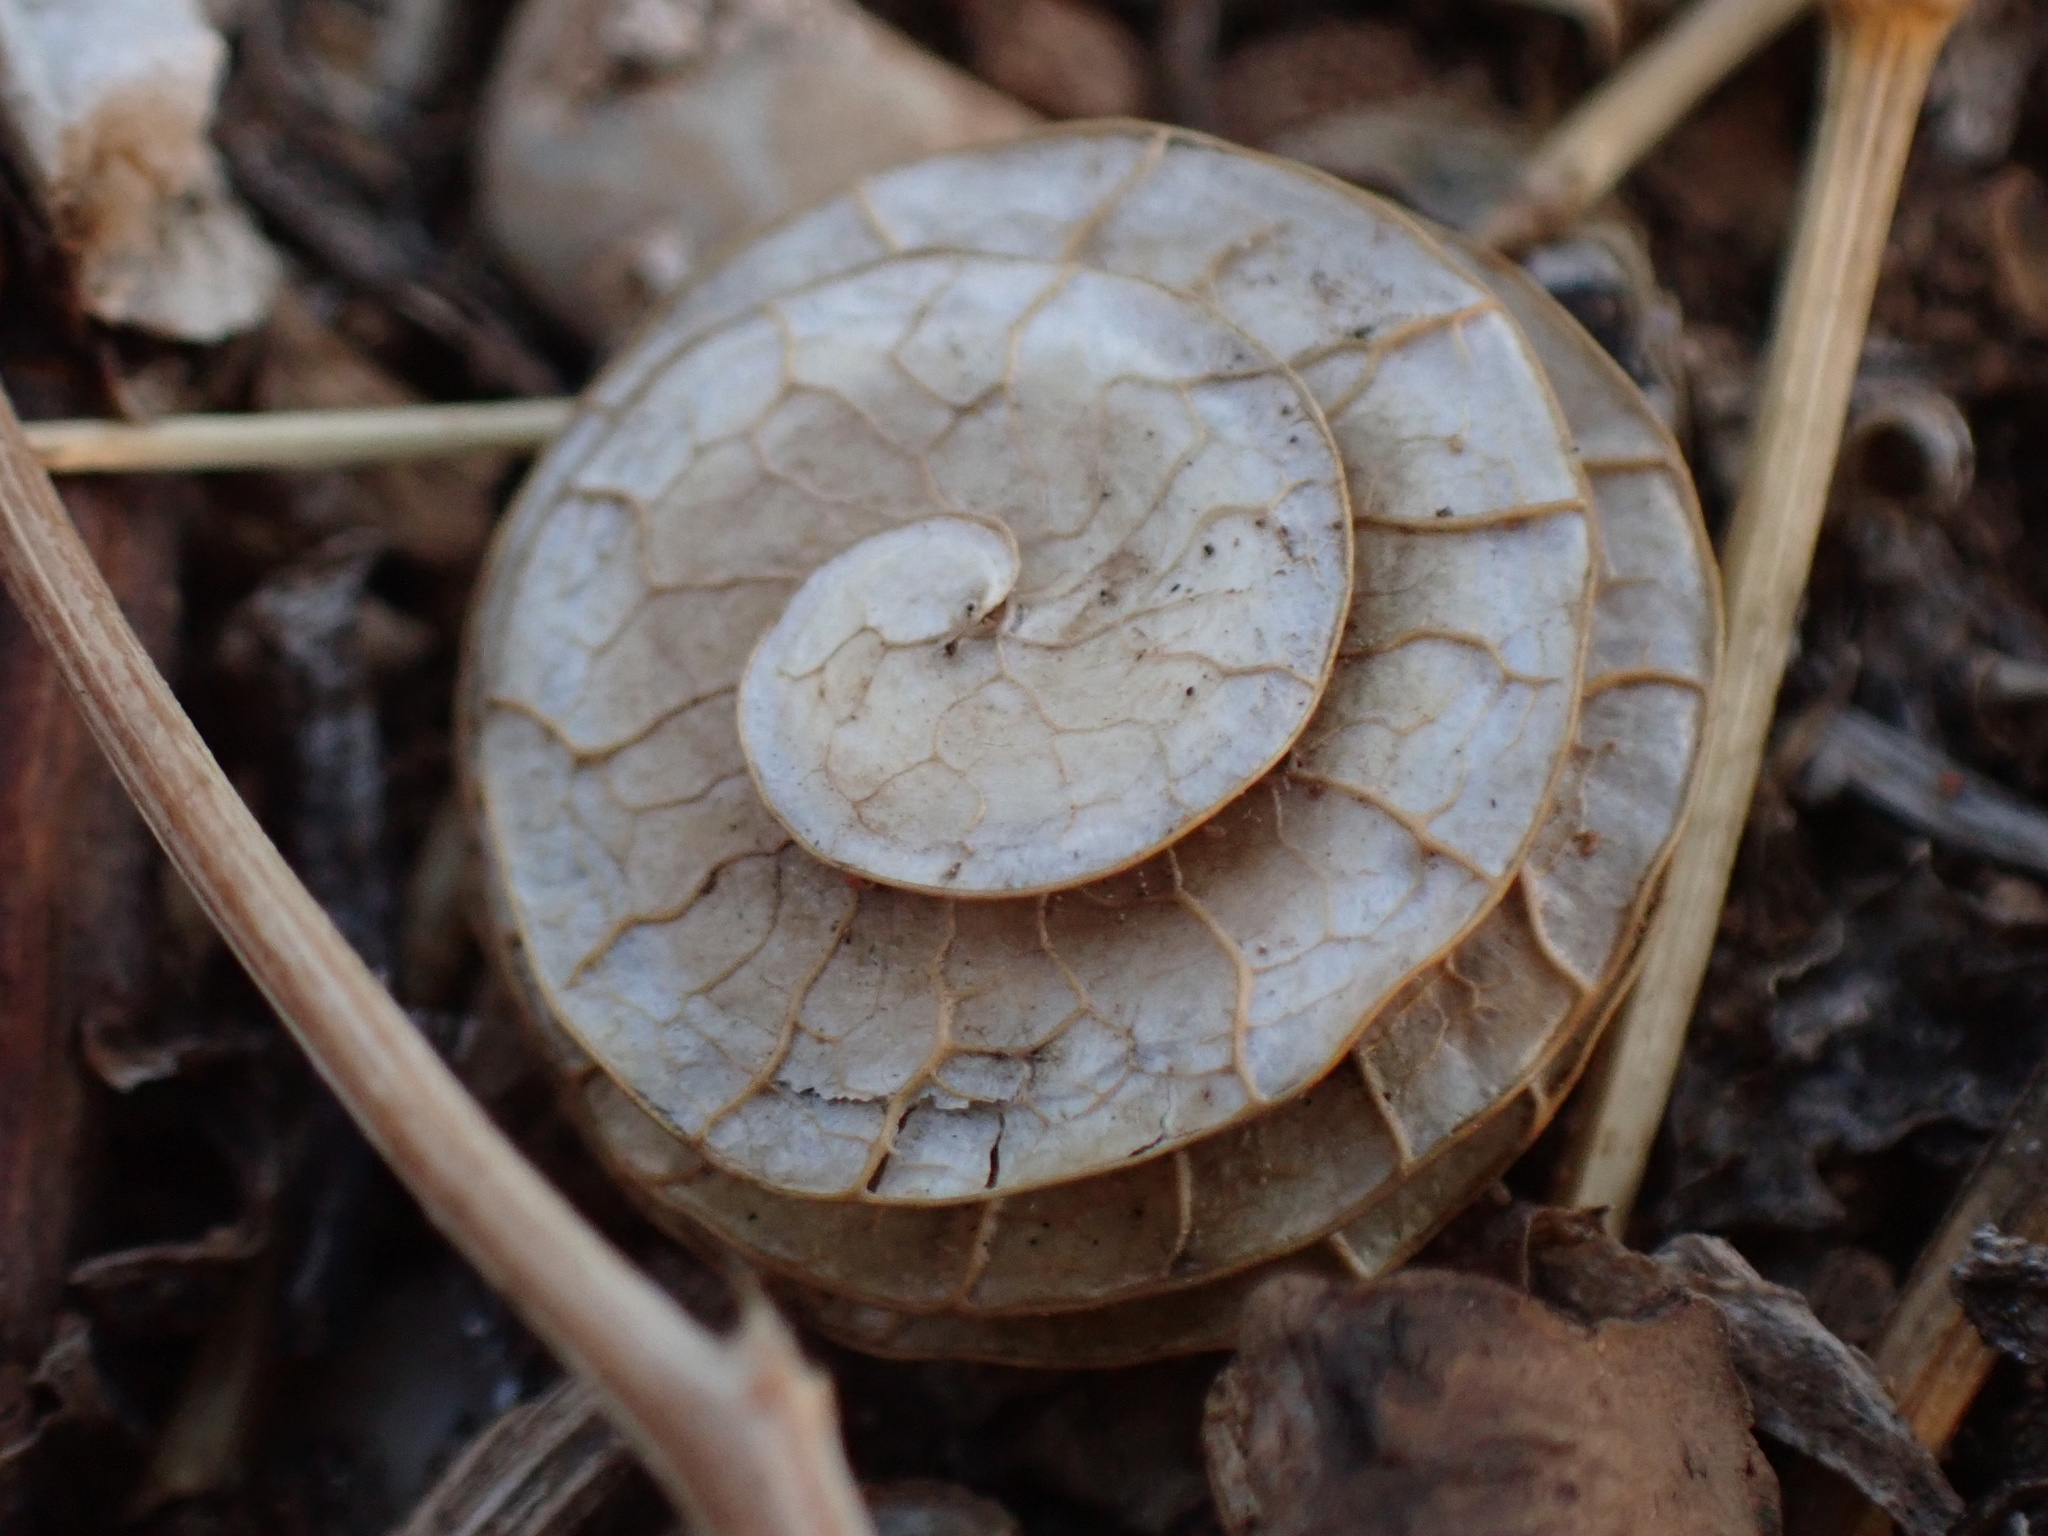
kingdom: Plantae
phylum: Tracheophyta
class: Magnoliopsida
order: Fabales
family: Fabaceae
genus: Medicago
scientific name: Medicago orbicularis
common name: Button medick
